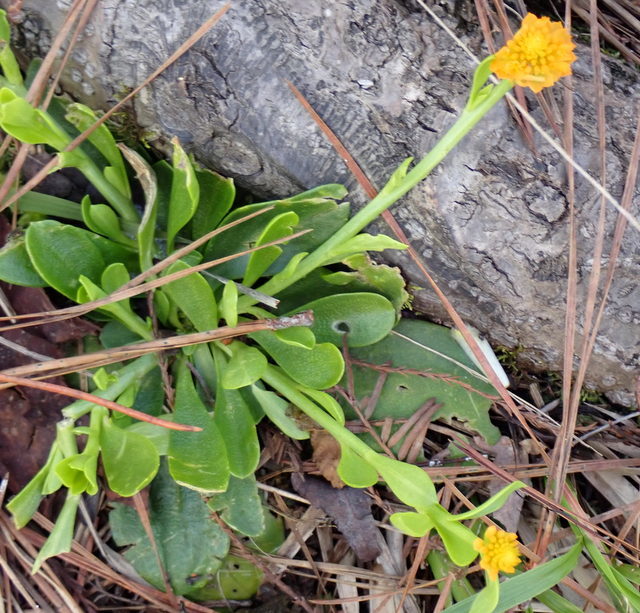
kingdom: Plantae
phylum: Tracheophyta
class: Magnoliopsida
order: Fabales
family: Polygalaceae
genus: Polygala
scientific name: Polygala lutea
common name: Orange milkwort
